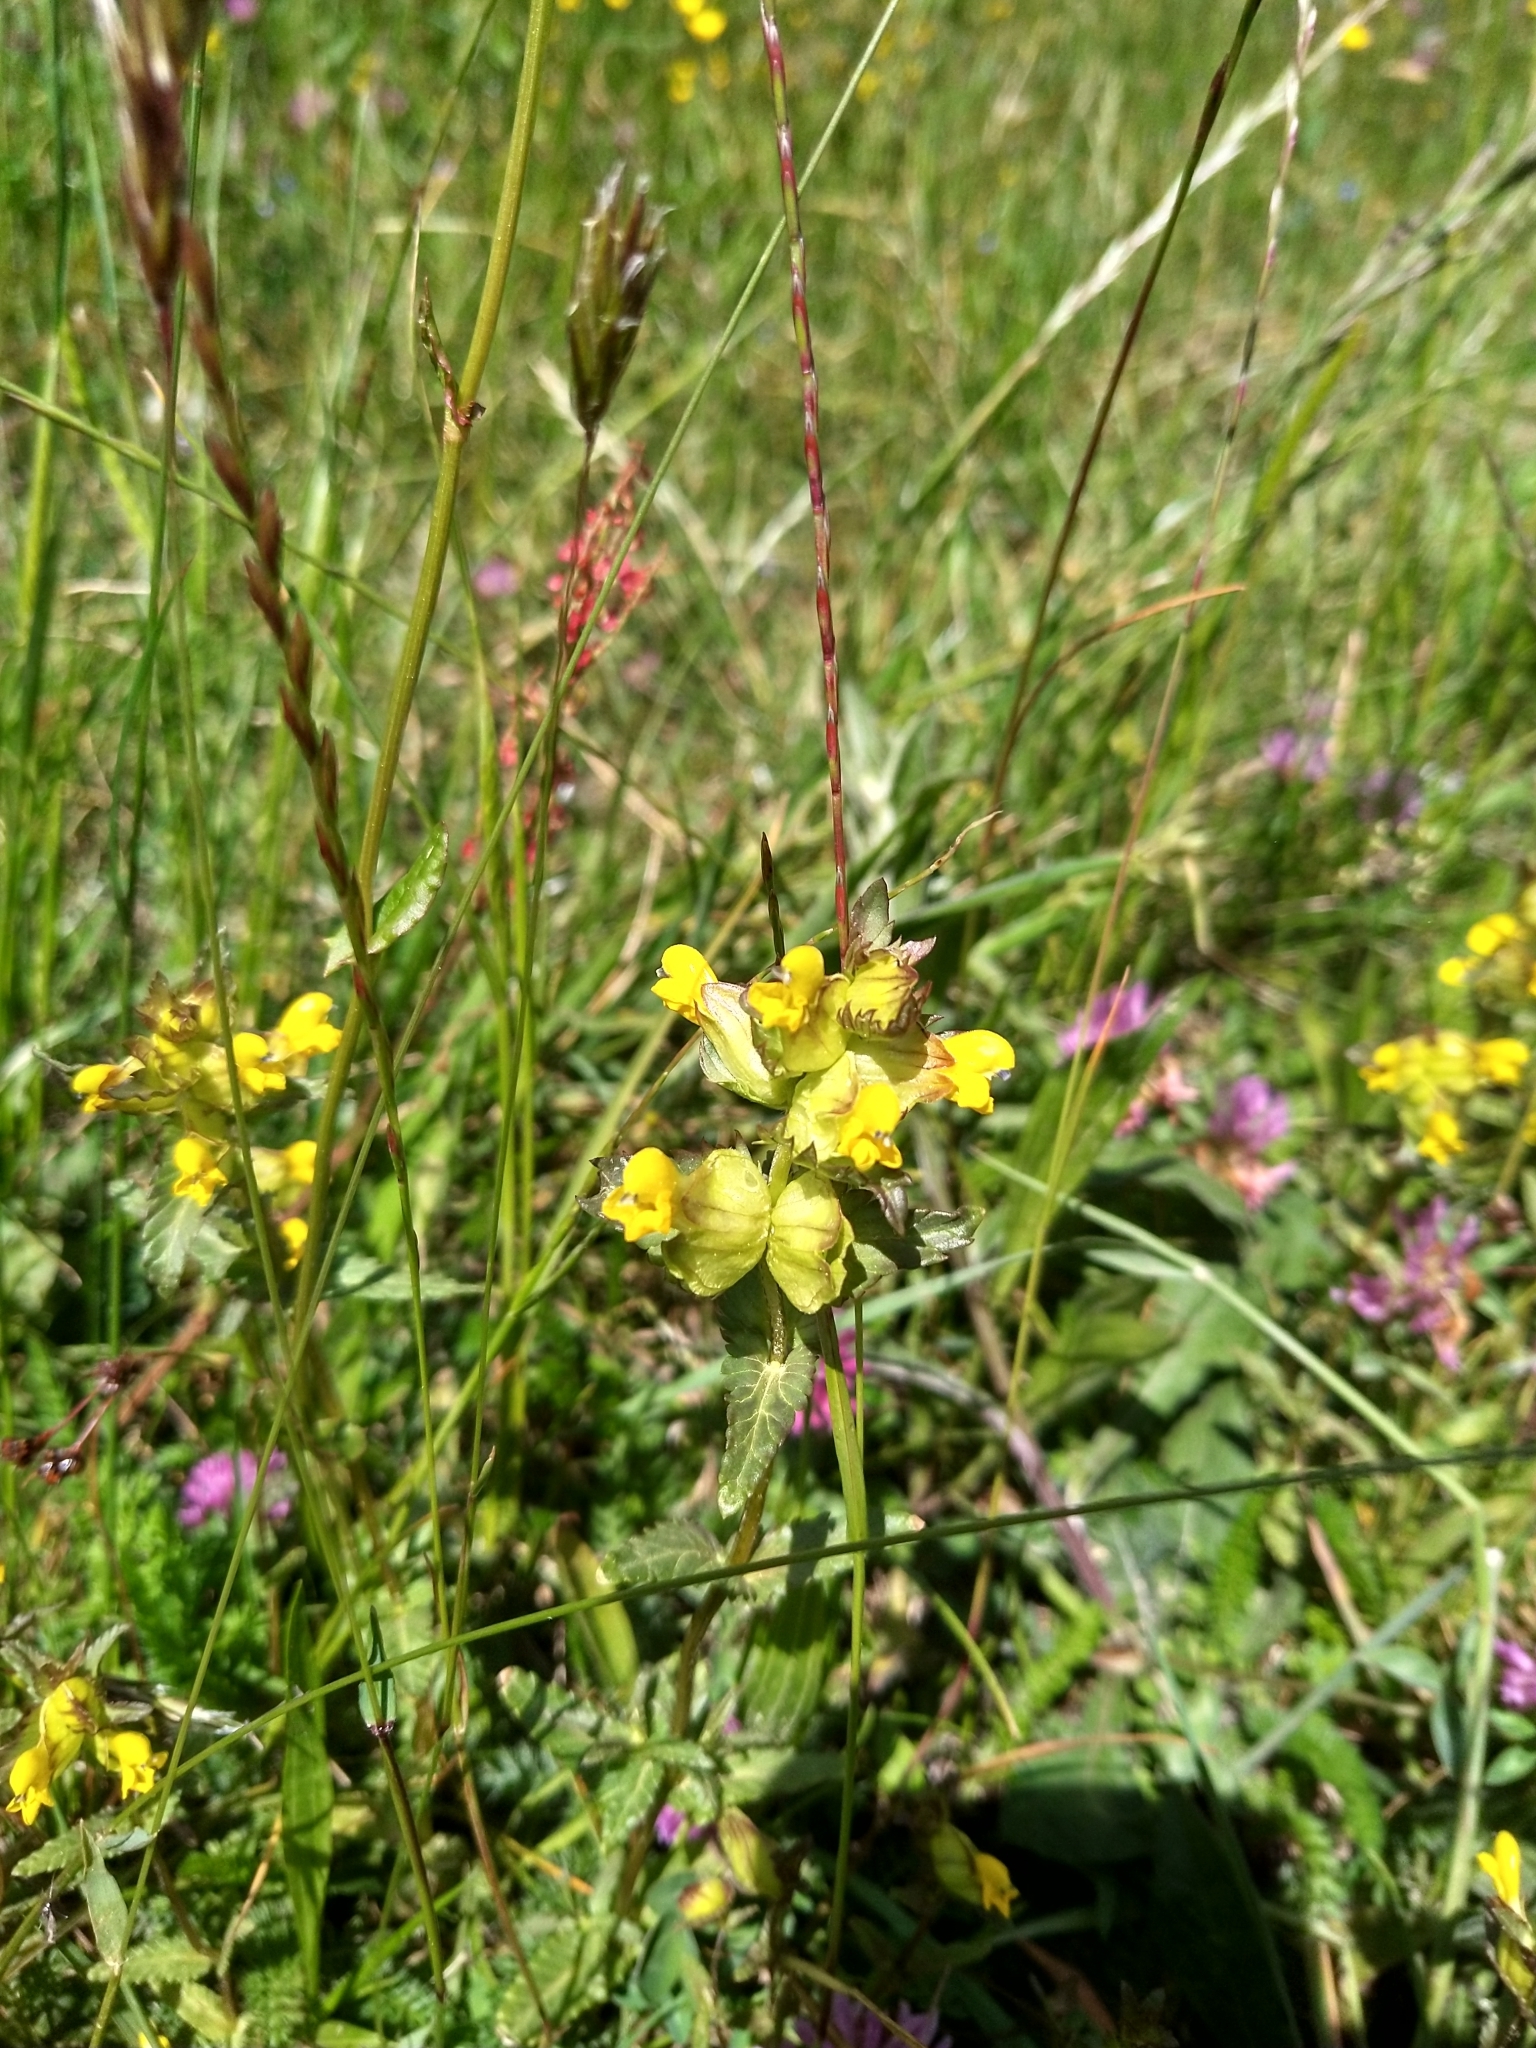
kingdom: Plantae
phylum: Tracheophyta
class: Magnoliopsida
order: Lamiales
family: Orobanchaceae
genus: Rhinanthus
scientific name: Rhinanthus minor
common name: Yellow-rattle
